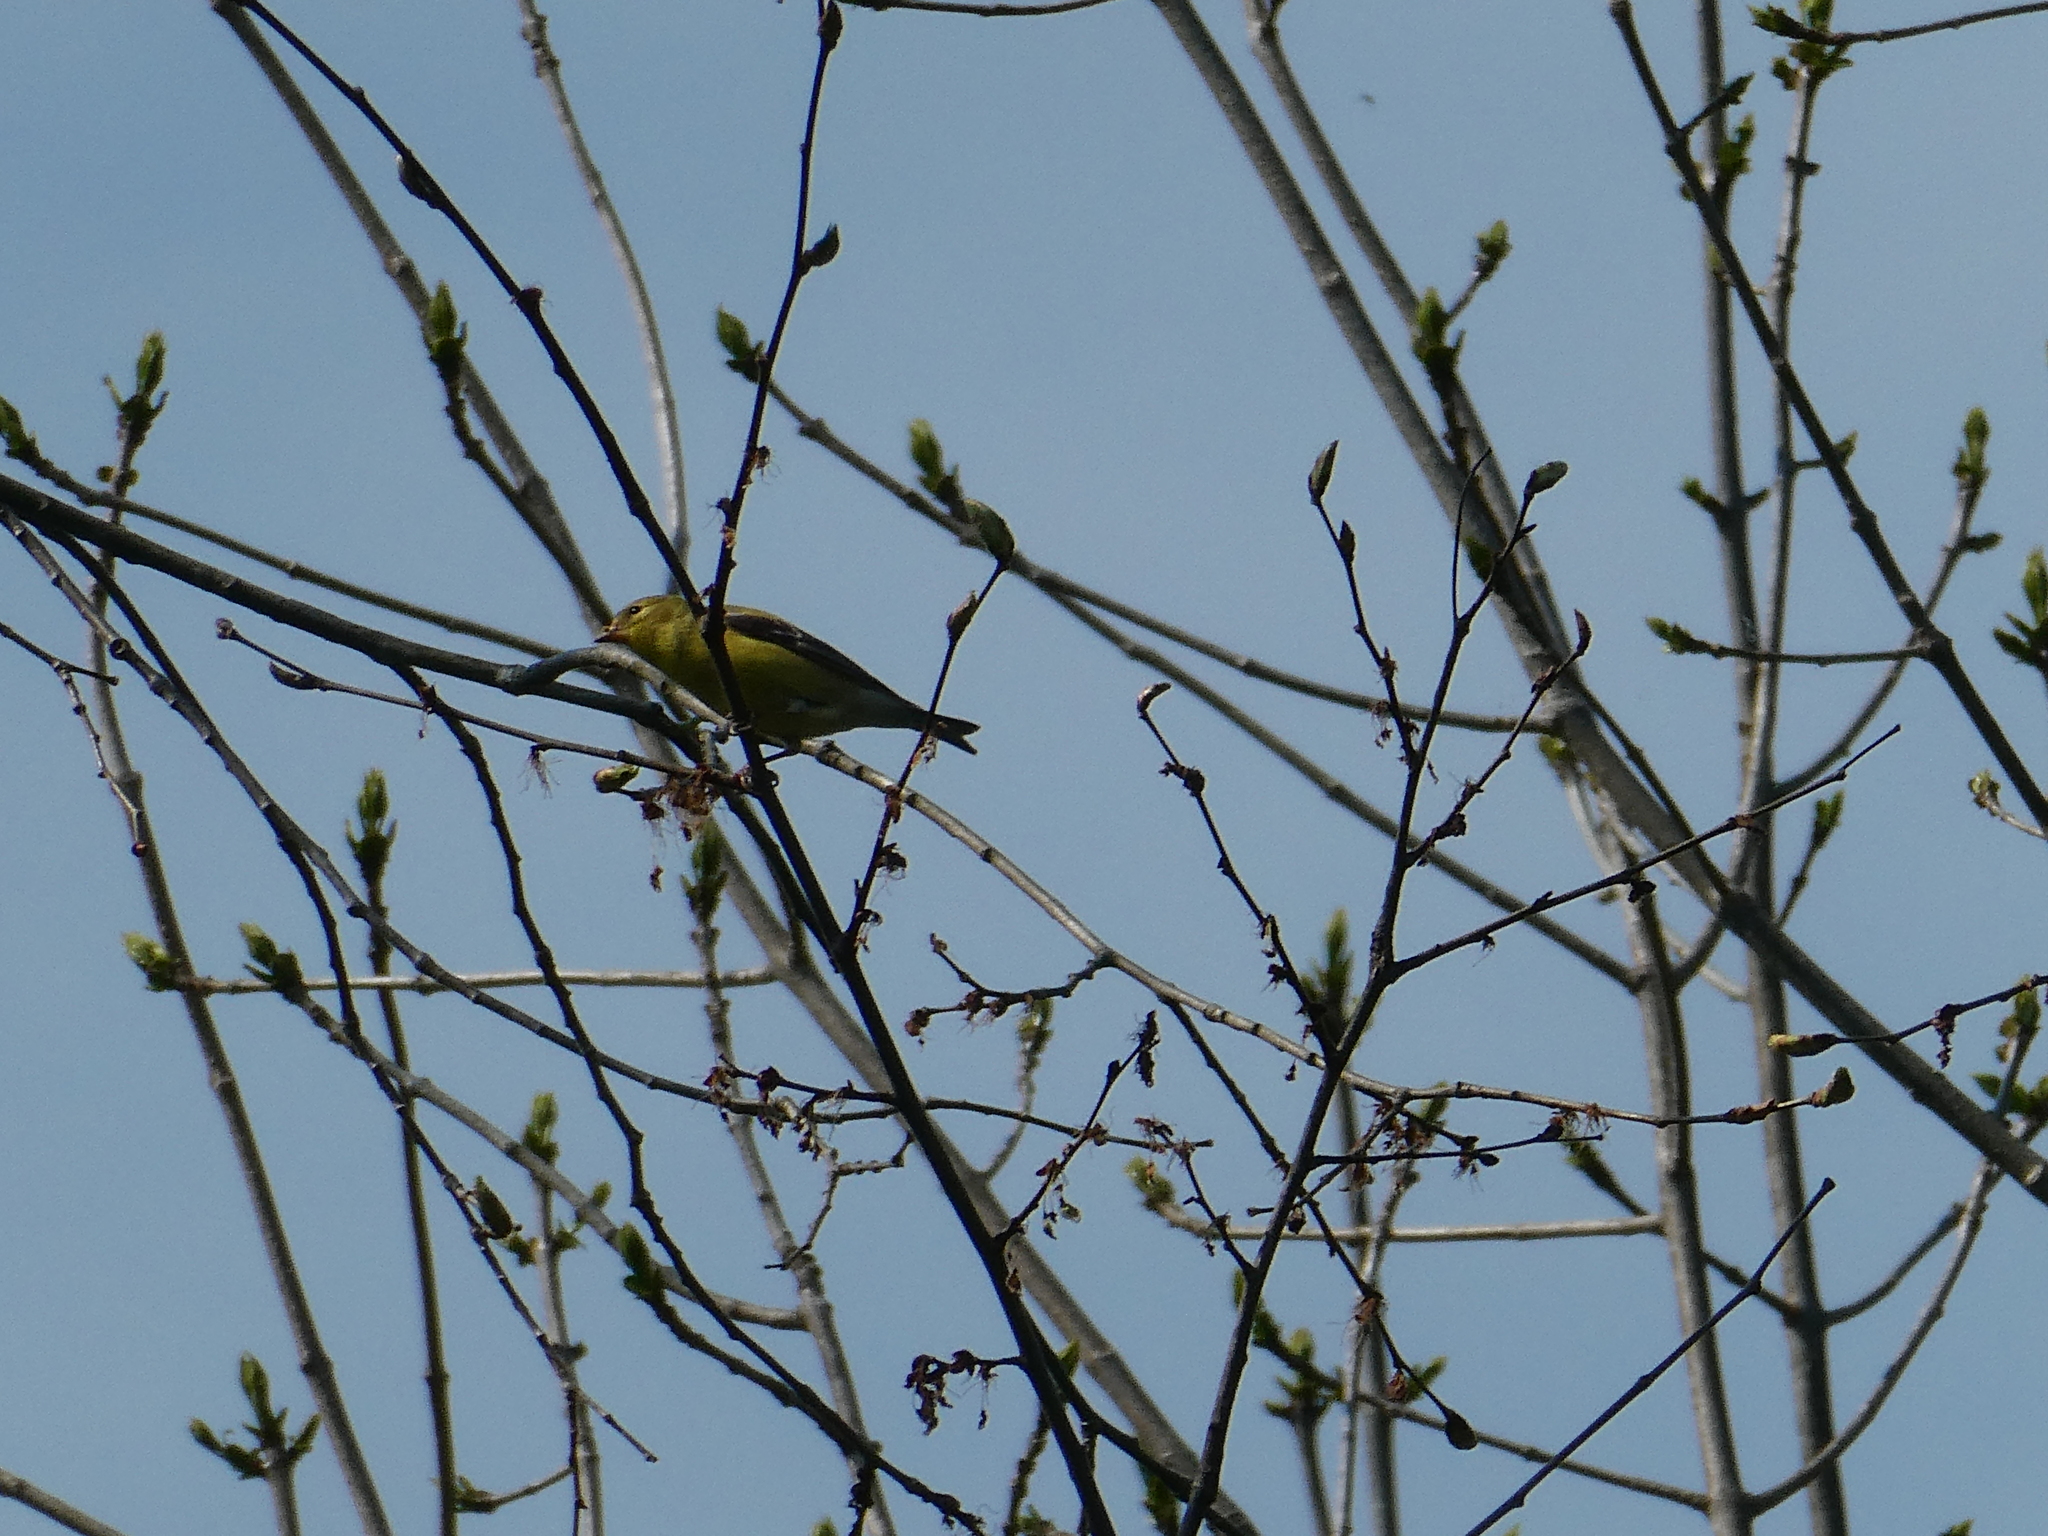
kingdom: Animalia
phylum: Chordata
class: Aves
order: Passeriformes
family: Fringillidae
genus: Spinus
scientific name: Spinus tristis
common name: American goldfinch
